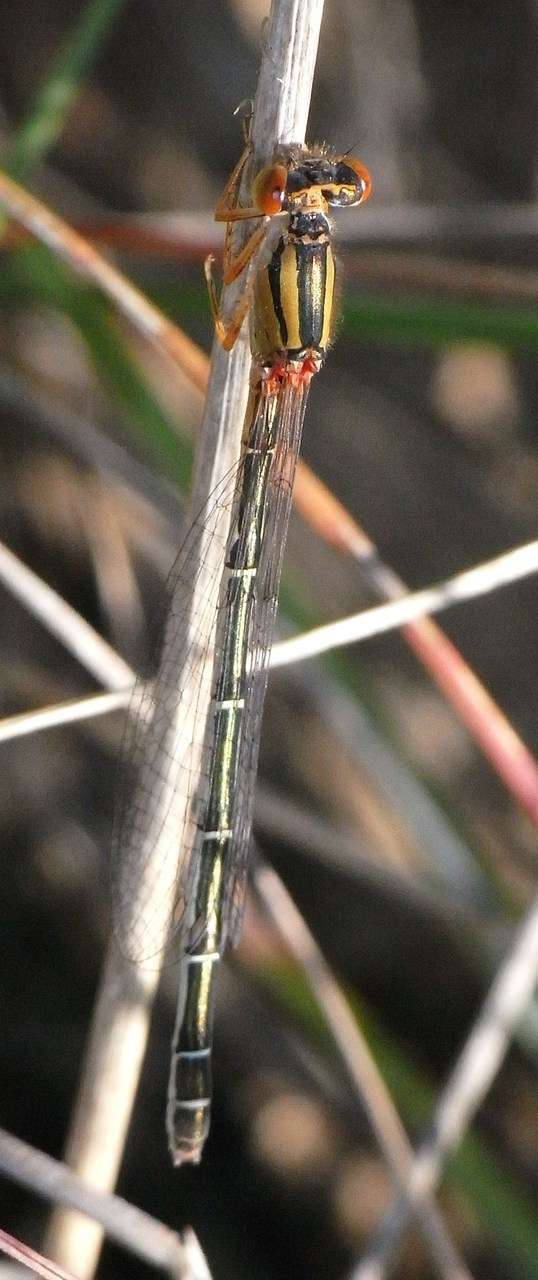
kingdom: Animalia
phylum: Arthropoda
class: Insecta
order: Odonata
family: Coenagrionidae
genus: Xanthagrion
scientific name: Xanthagrion erythroneurum
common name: Red and blue damsel
